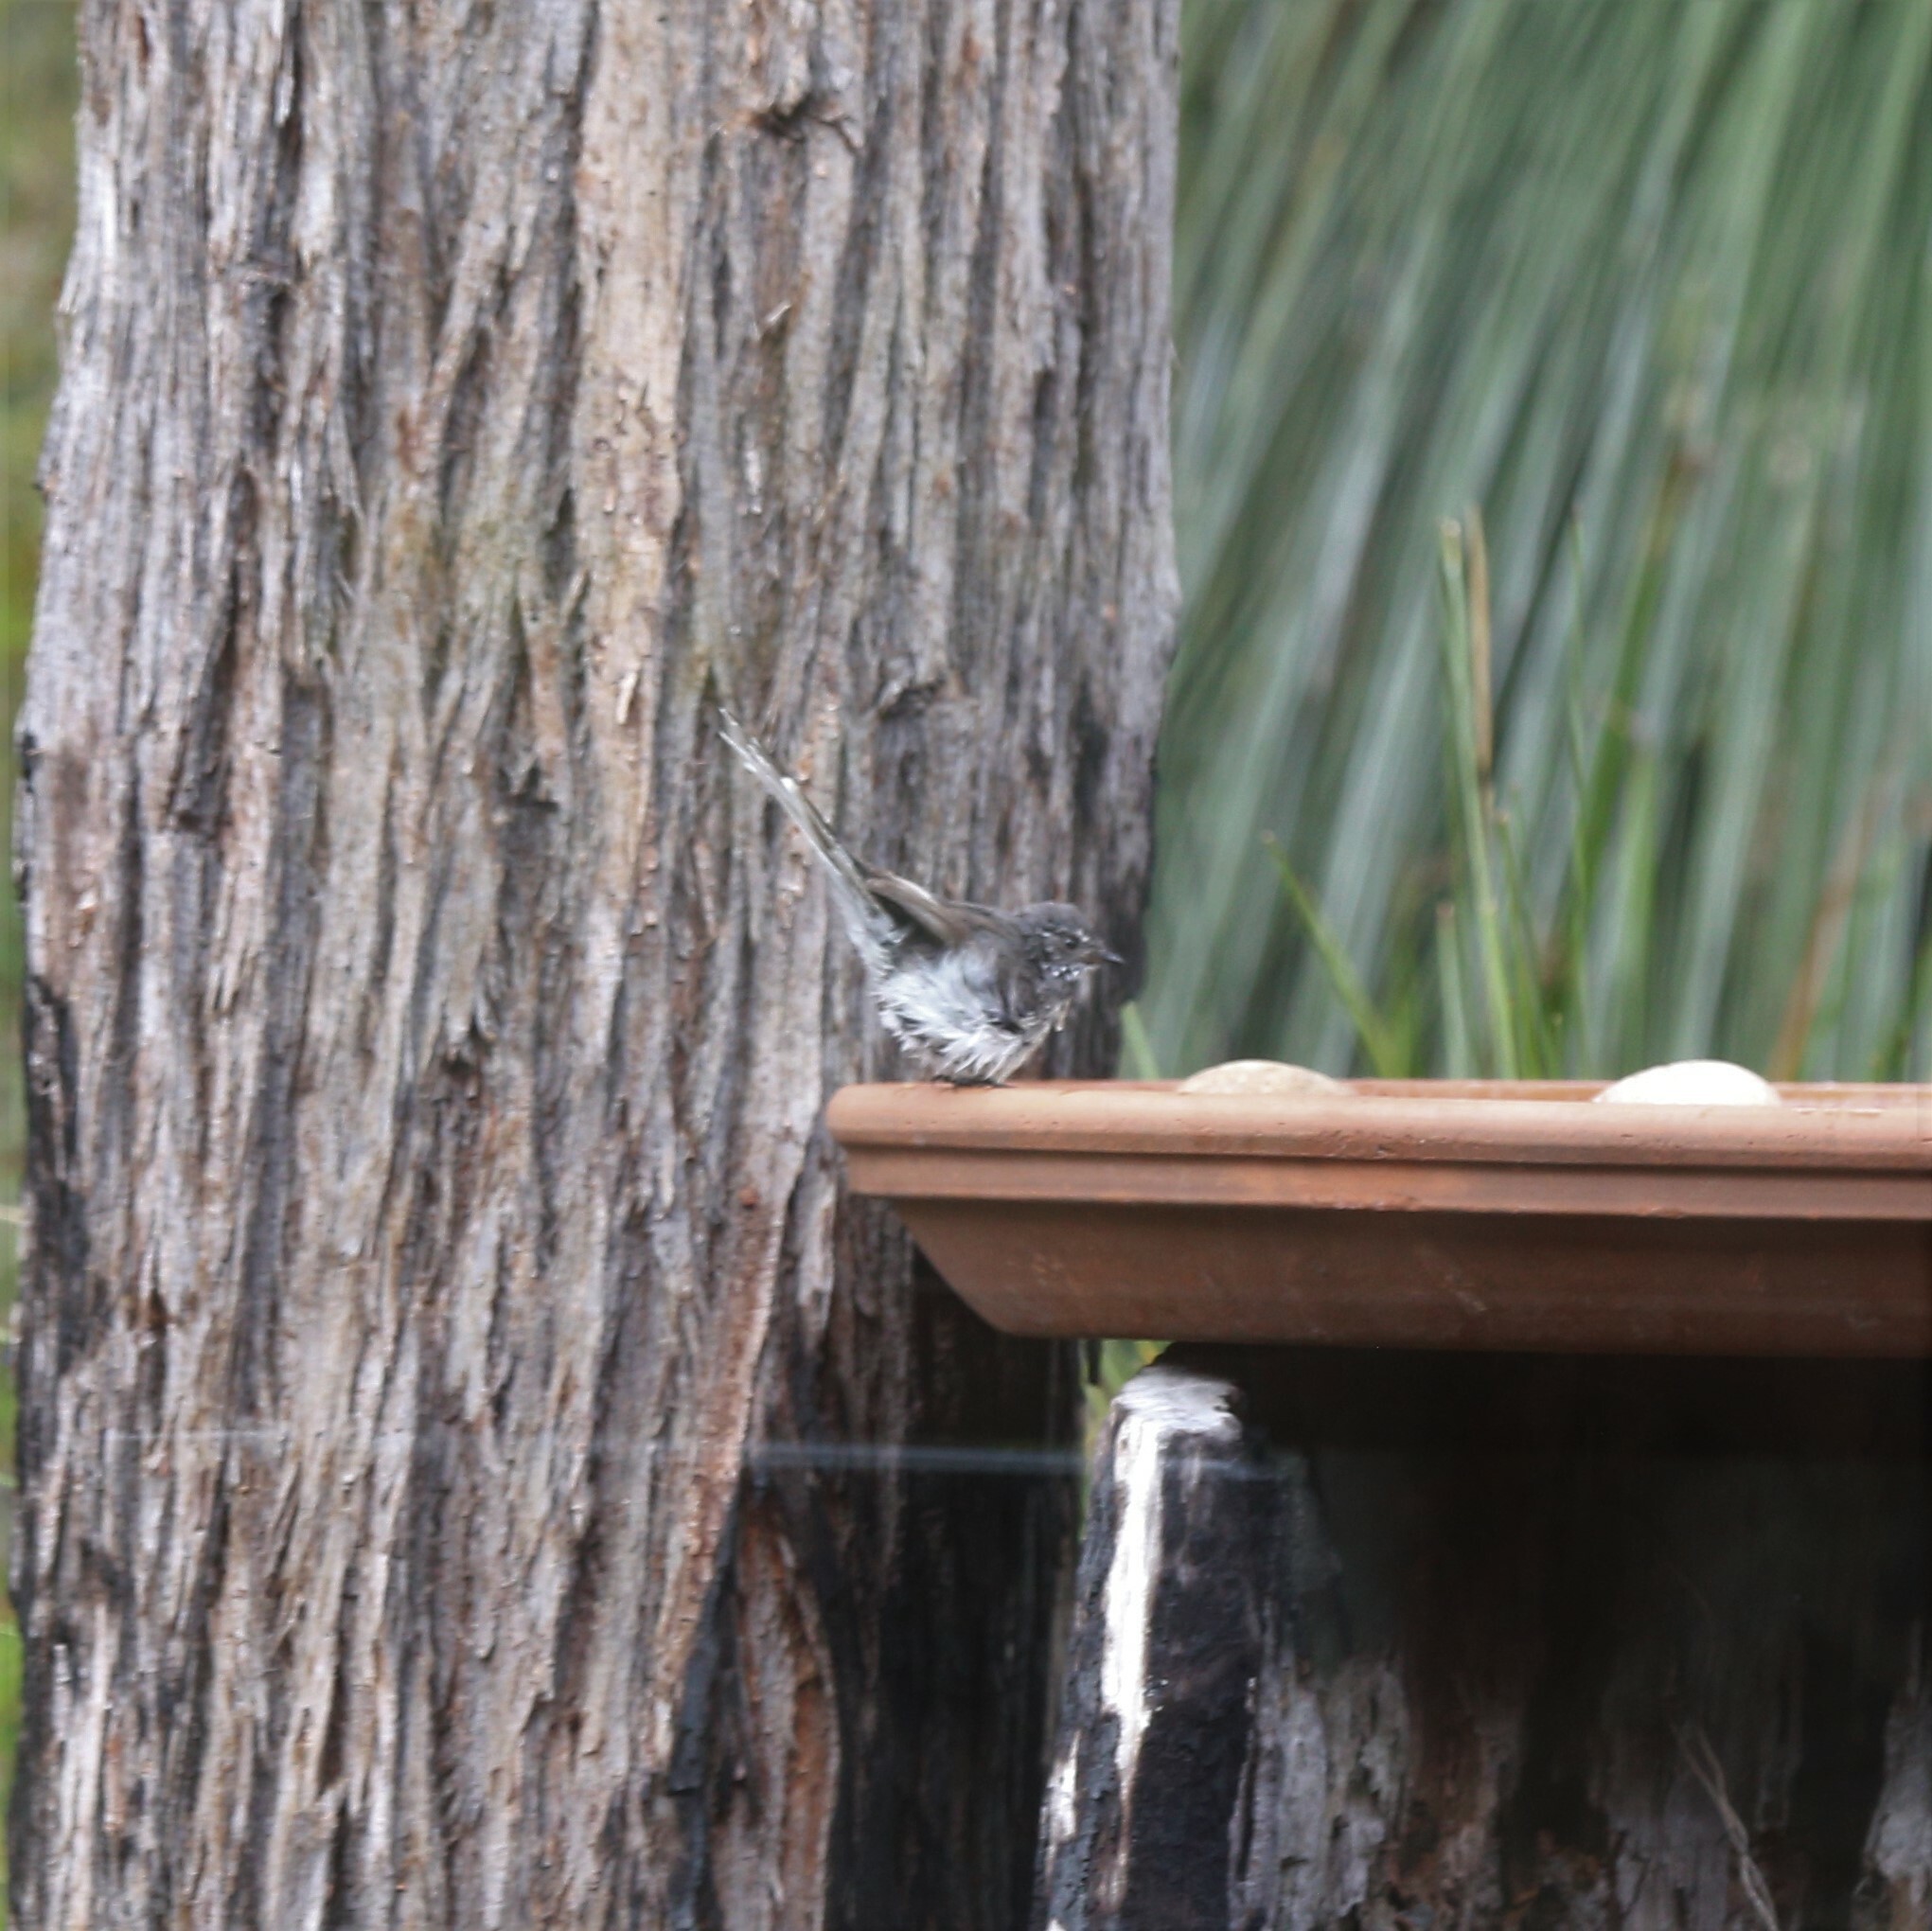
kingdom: Animalia
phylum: Chordata
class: Aves
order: Passeriformes
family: Rhipiduridae
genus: Rhipidura
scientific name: Rhipidura albiscapa
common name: Grey fantail
